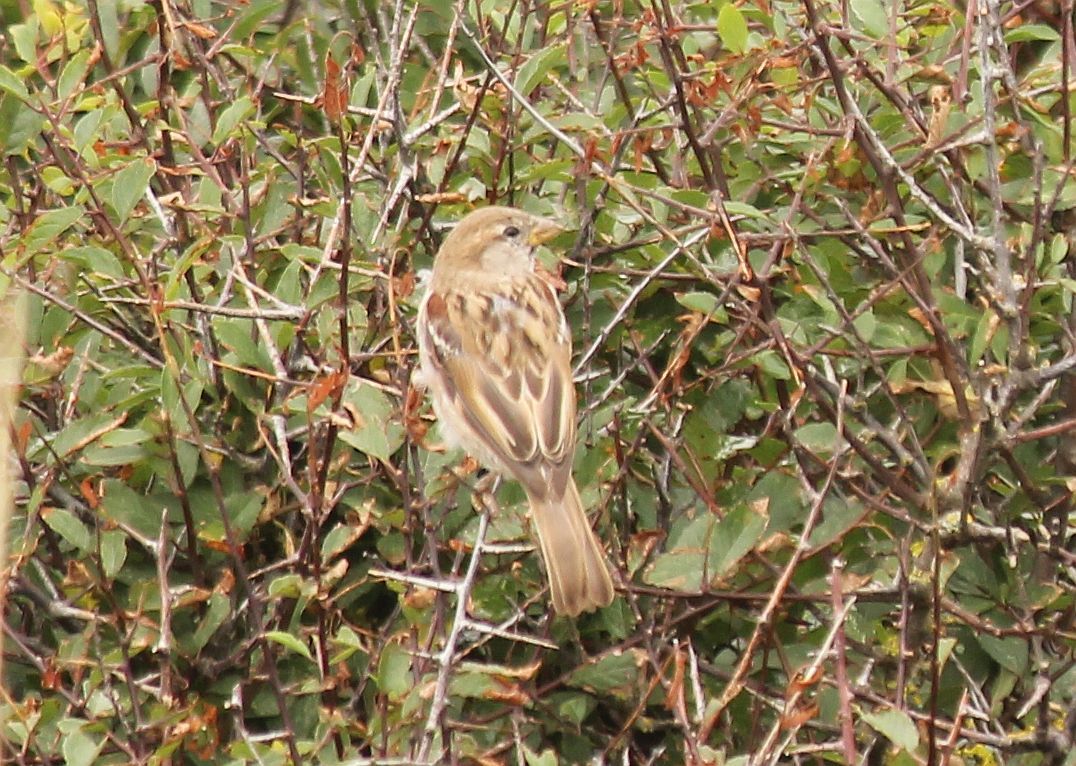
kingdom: Animalia
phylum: Chordata
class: Aves
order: Passeriformes
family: Passeridae
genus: Passer
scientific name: Passer domesticus
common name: House sparrow
